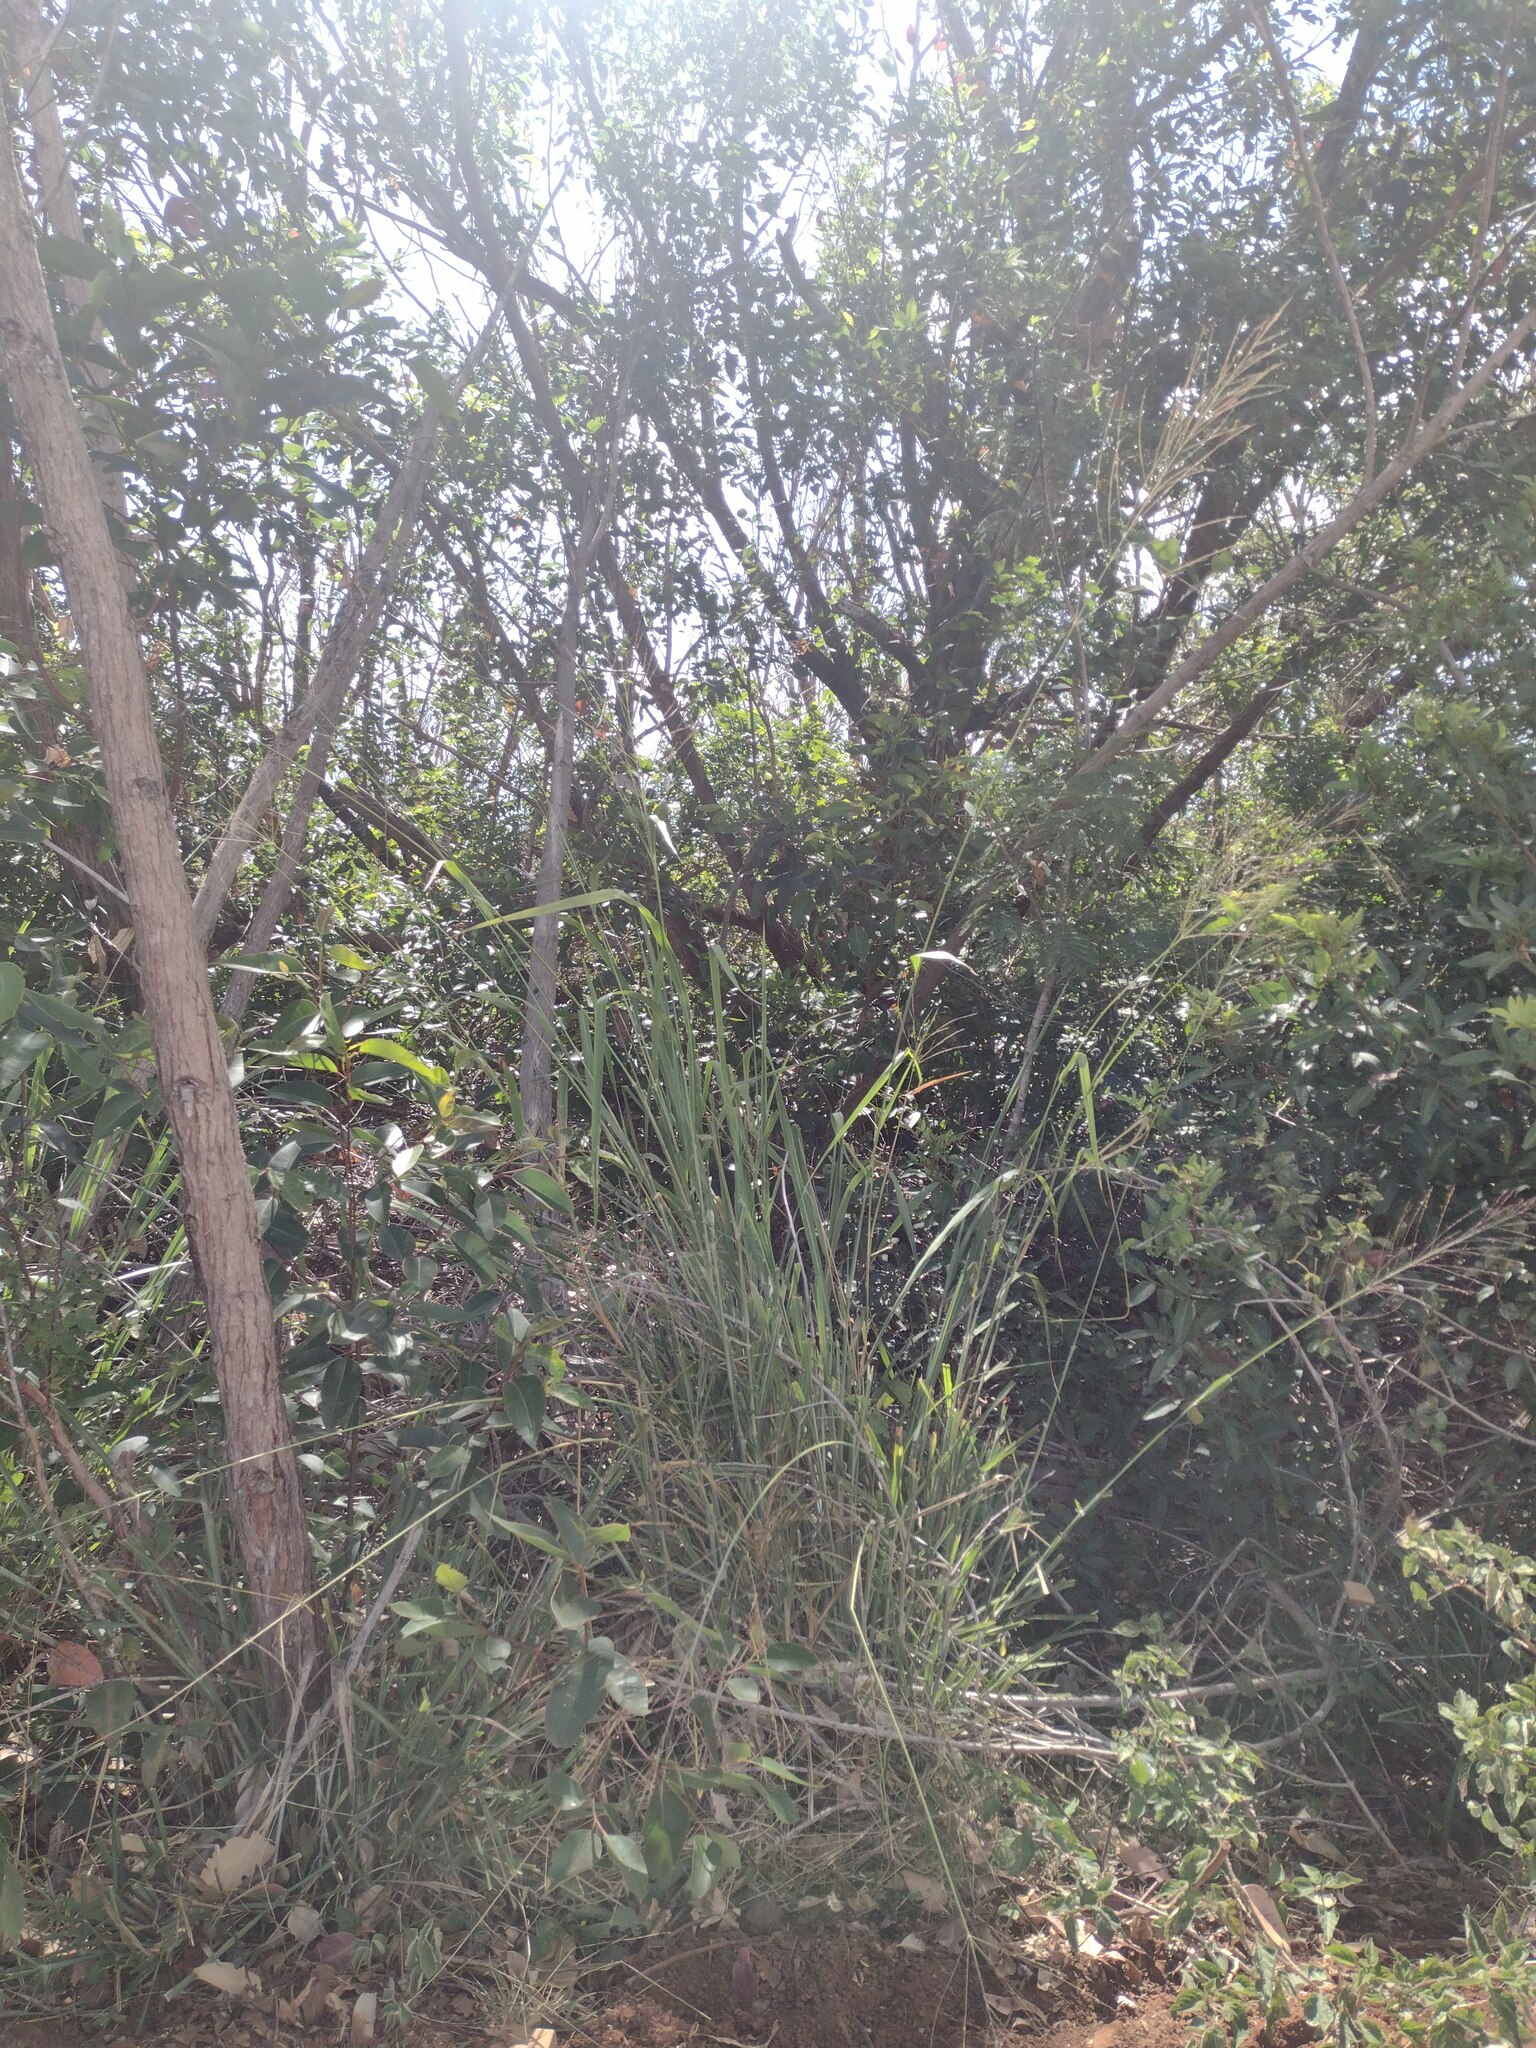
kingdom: Plantae
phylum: Tracheophyta
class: Liliopsida
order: Poales
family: Poaceae
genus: Megathyrsus
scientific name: Megathyrsus maximus
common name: Guineagrass
